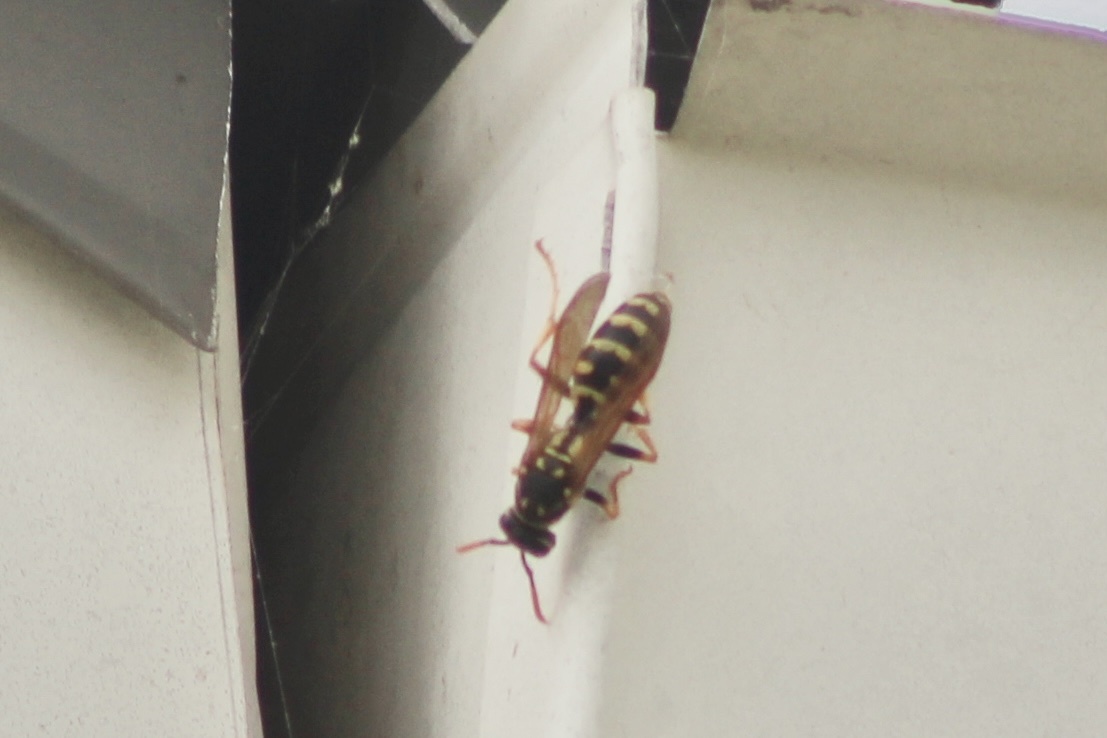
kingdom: Animalia
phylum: Arthropoda
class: Insecta
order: Hymenoptera
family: Eumenidae
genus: Polistes
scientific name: Polistes dominula
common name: Paper wasp
